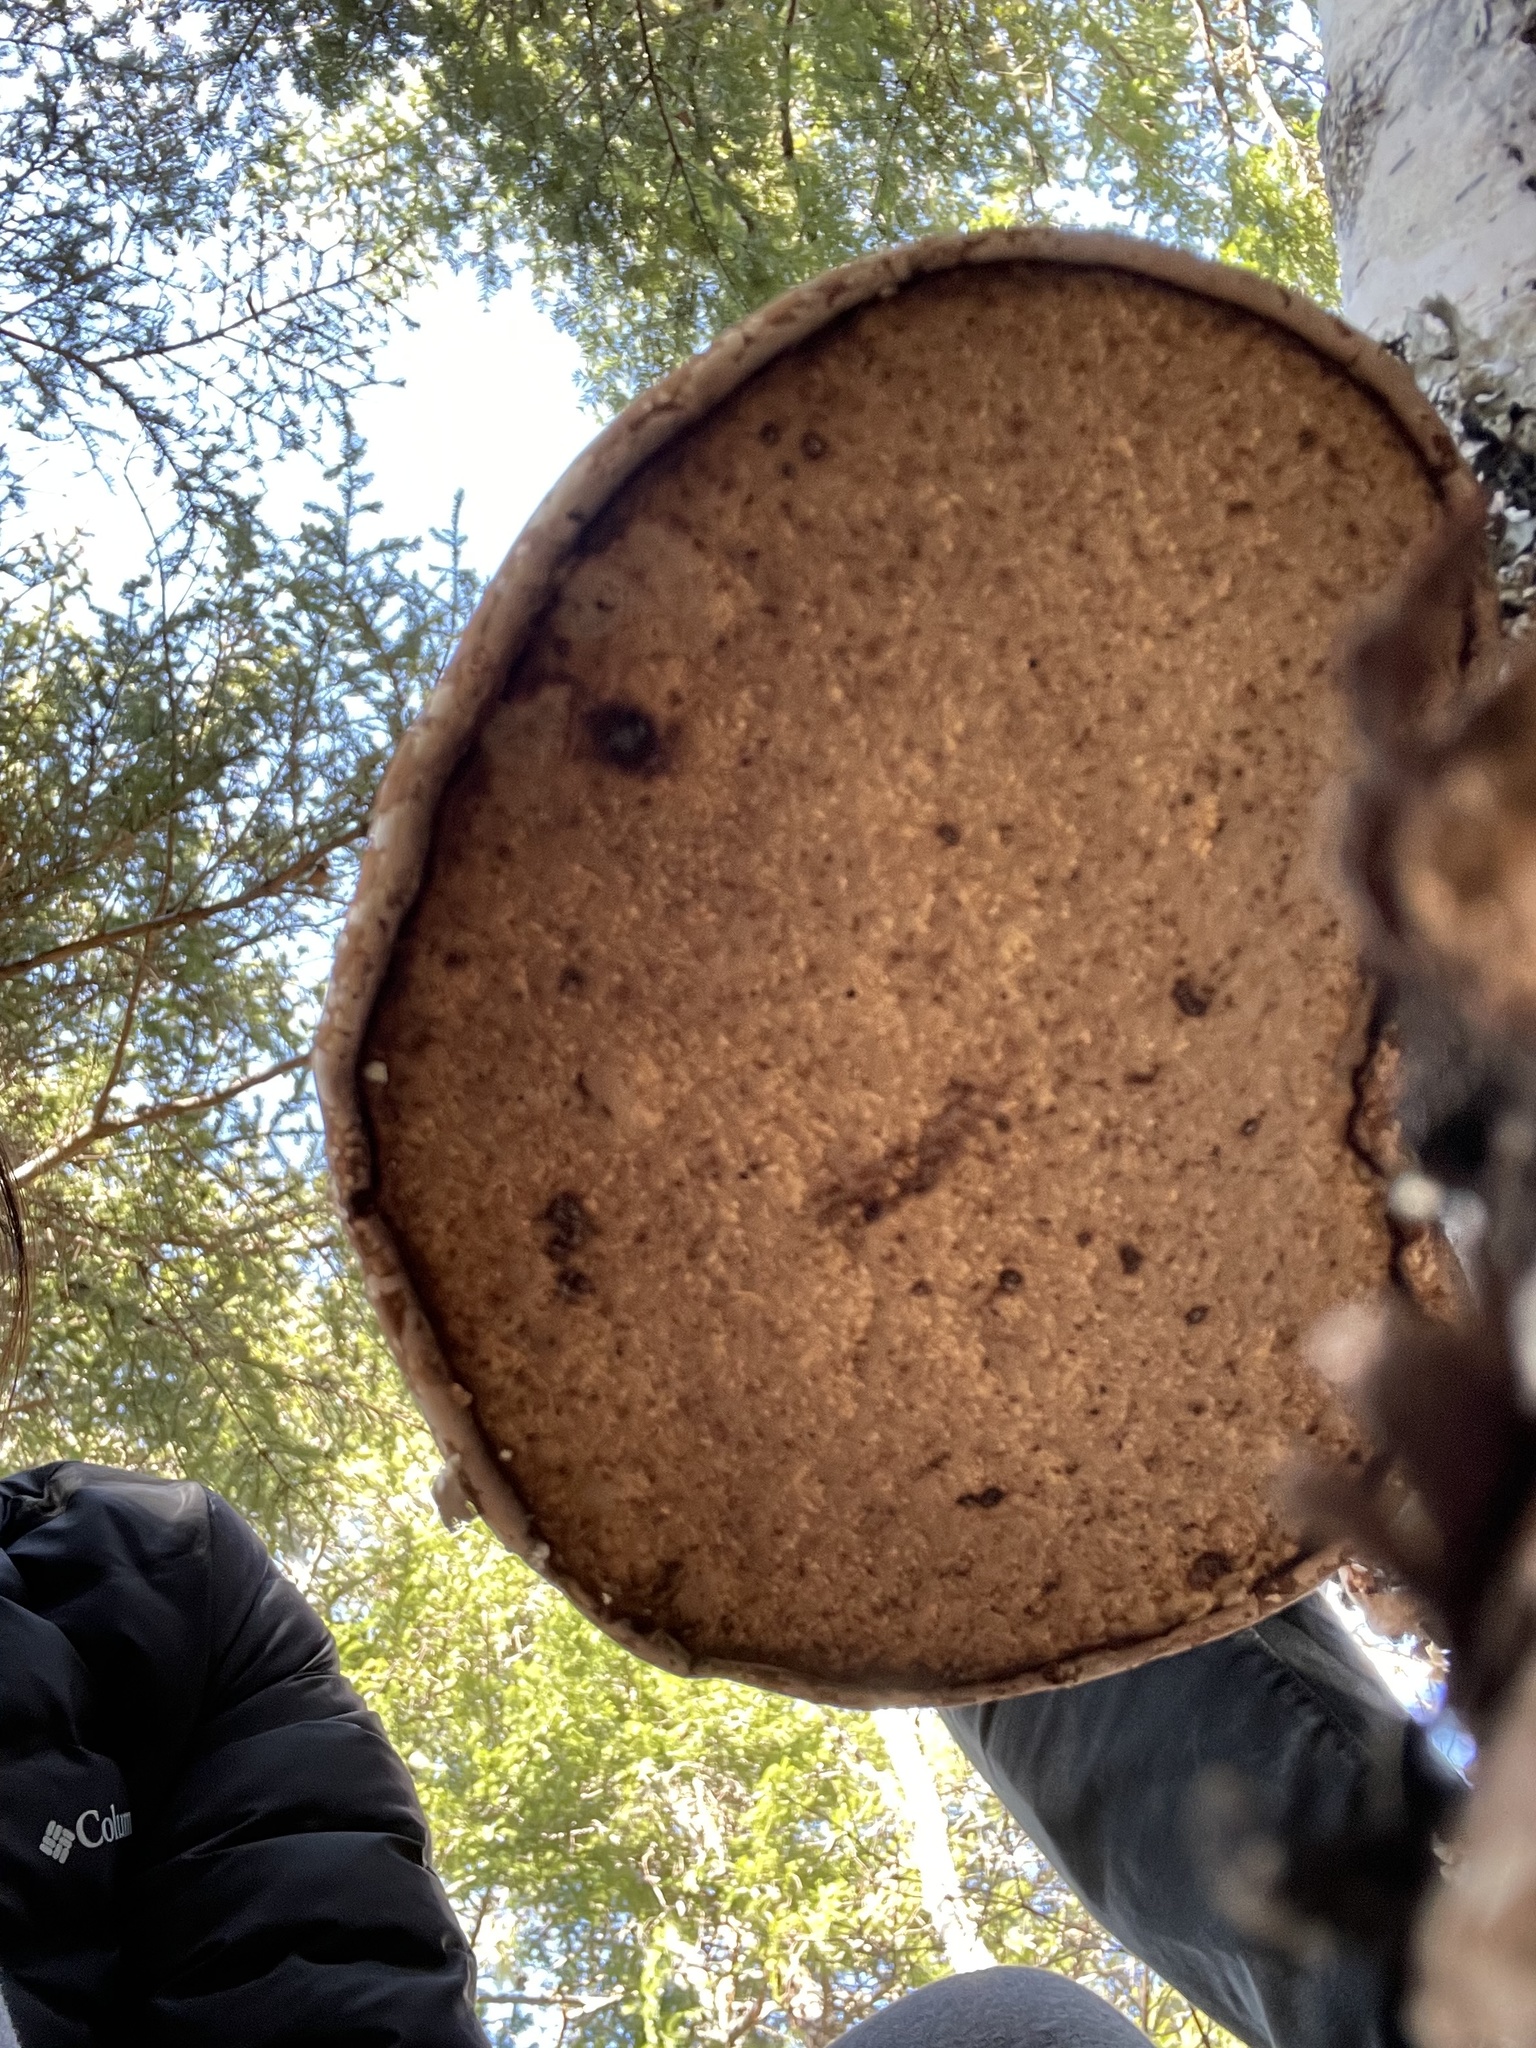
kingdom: Fungi
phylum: Basidiomycota
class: Agaricomycetes
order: Polyporales
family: Fomitopsidaceae
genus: Fomitopsis
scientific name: Fomitopsis betulina
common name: Birch polypore
